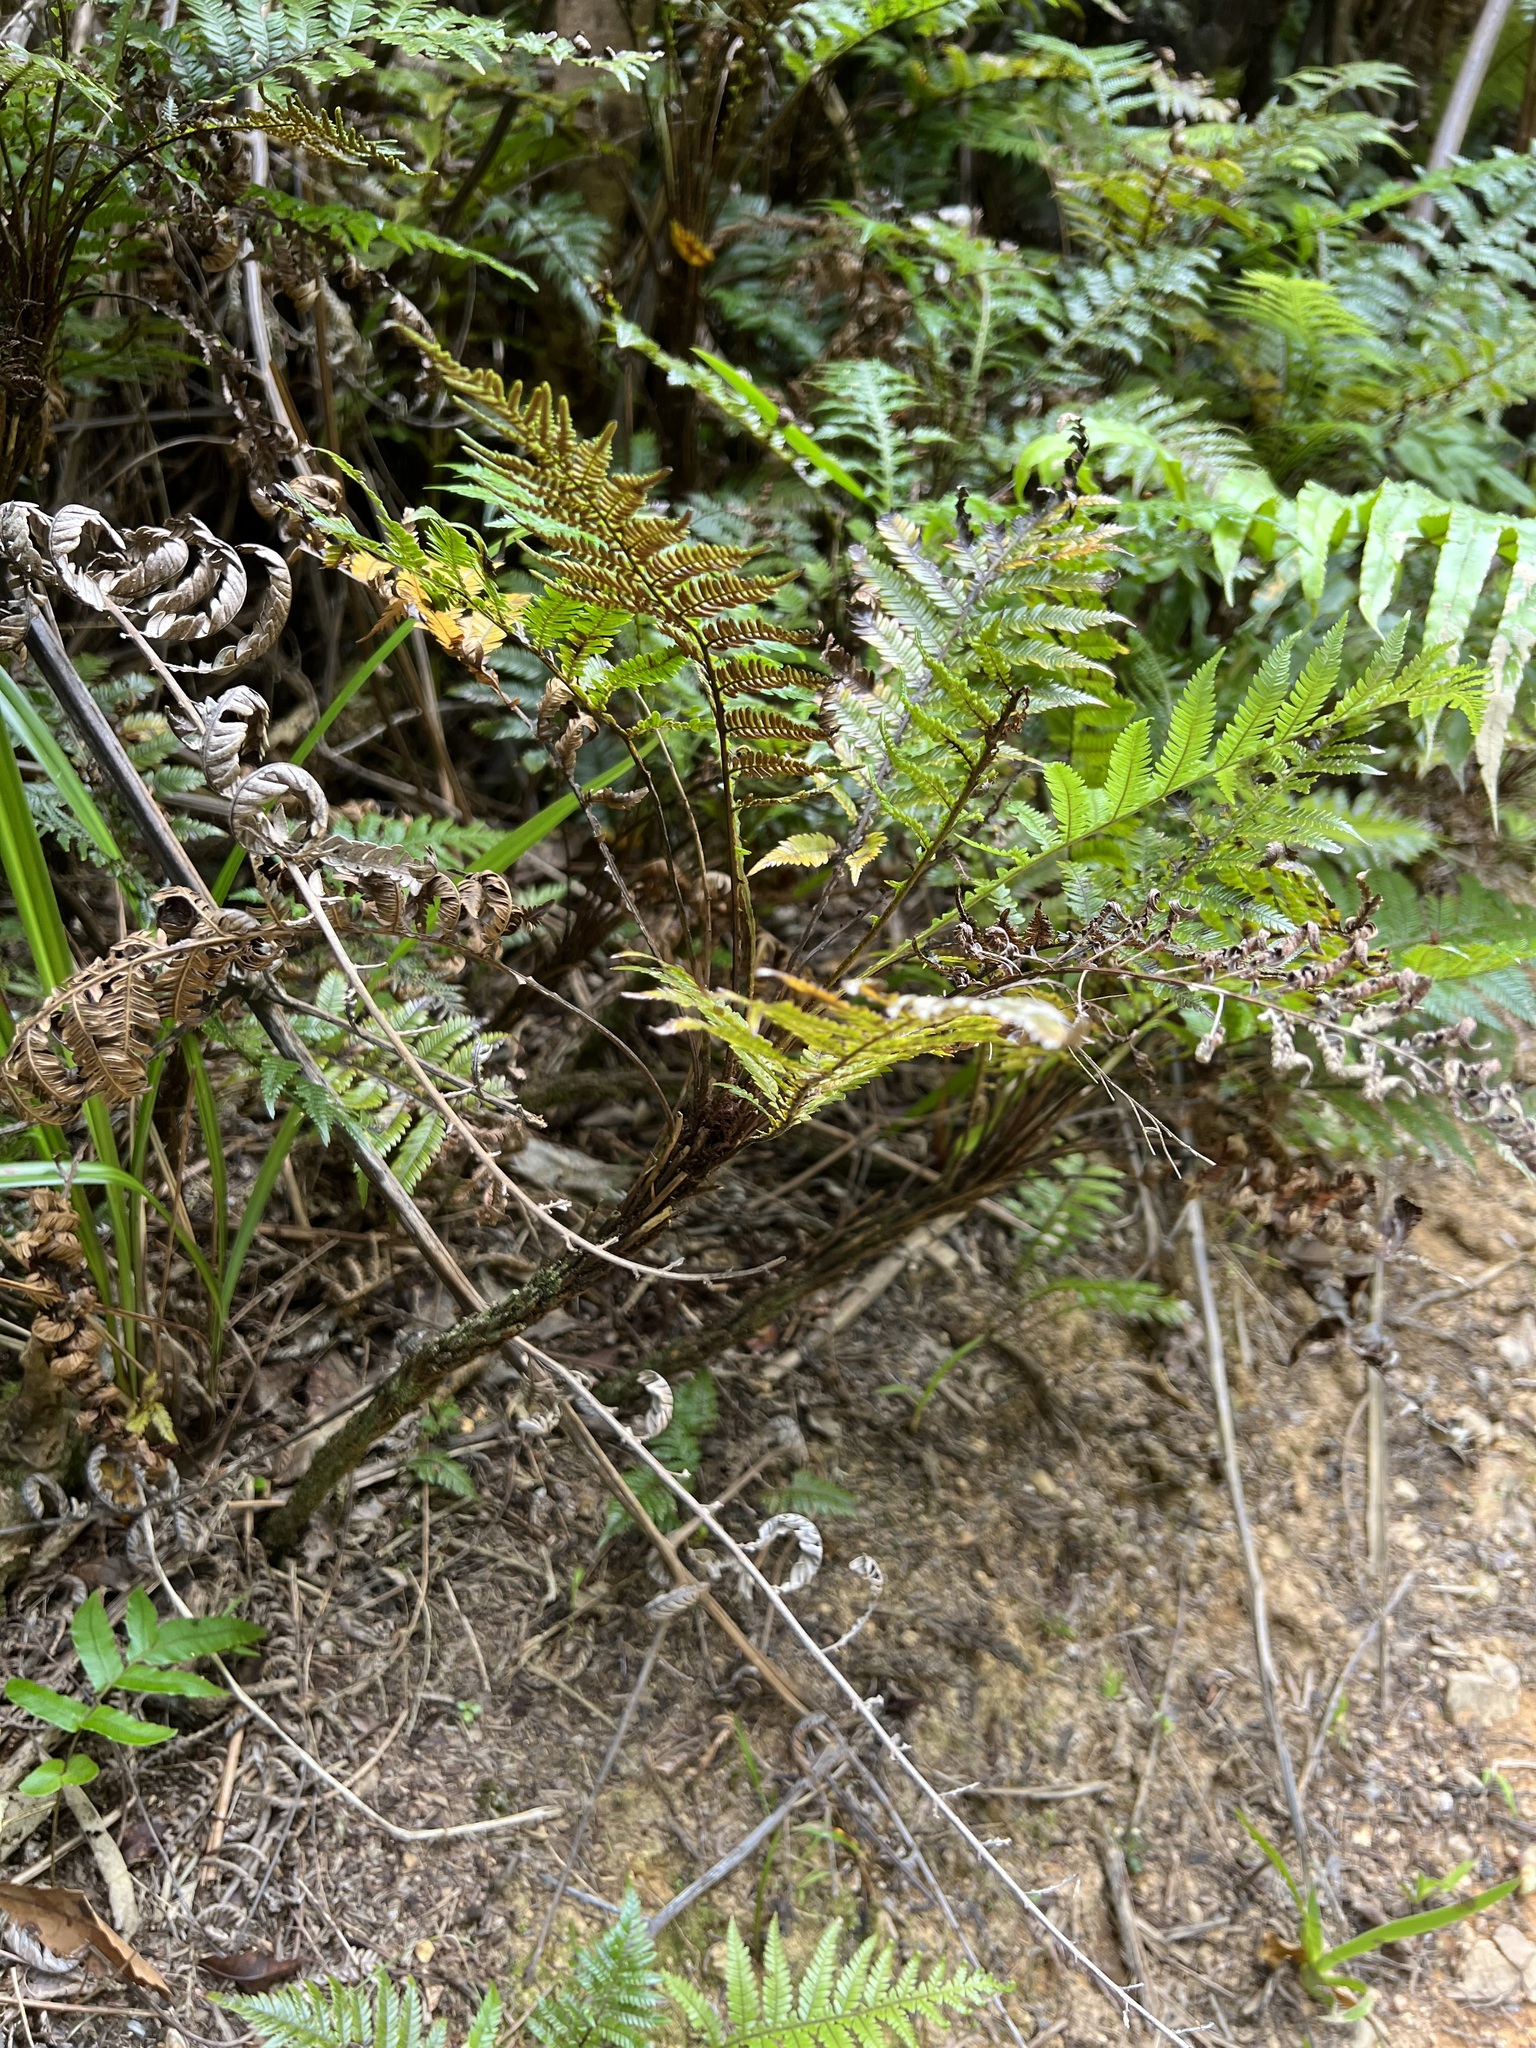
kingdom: Plantae
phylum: Tracheophyta
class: Polypodiopsida
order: Polypodiales
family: Blechnaceae
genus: Diploblechnum
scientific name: Diploblechnum fraseri
